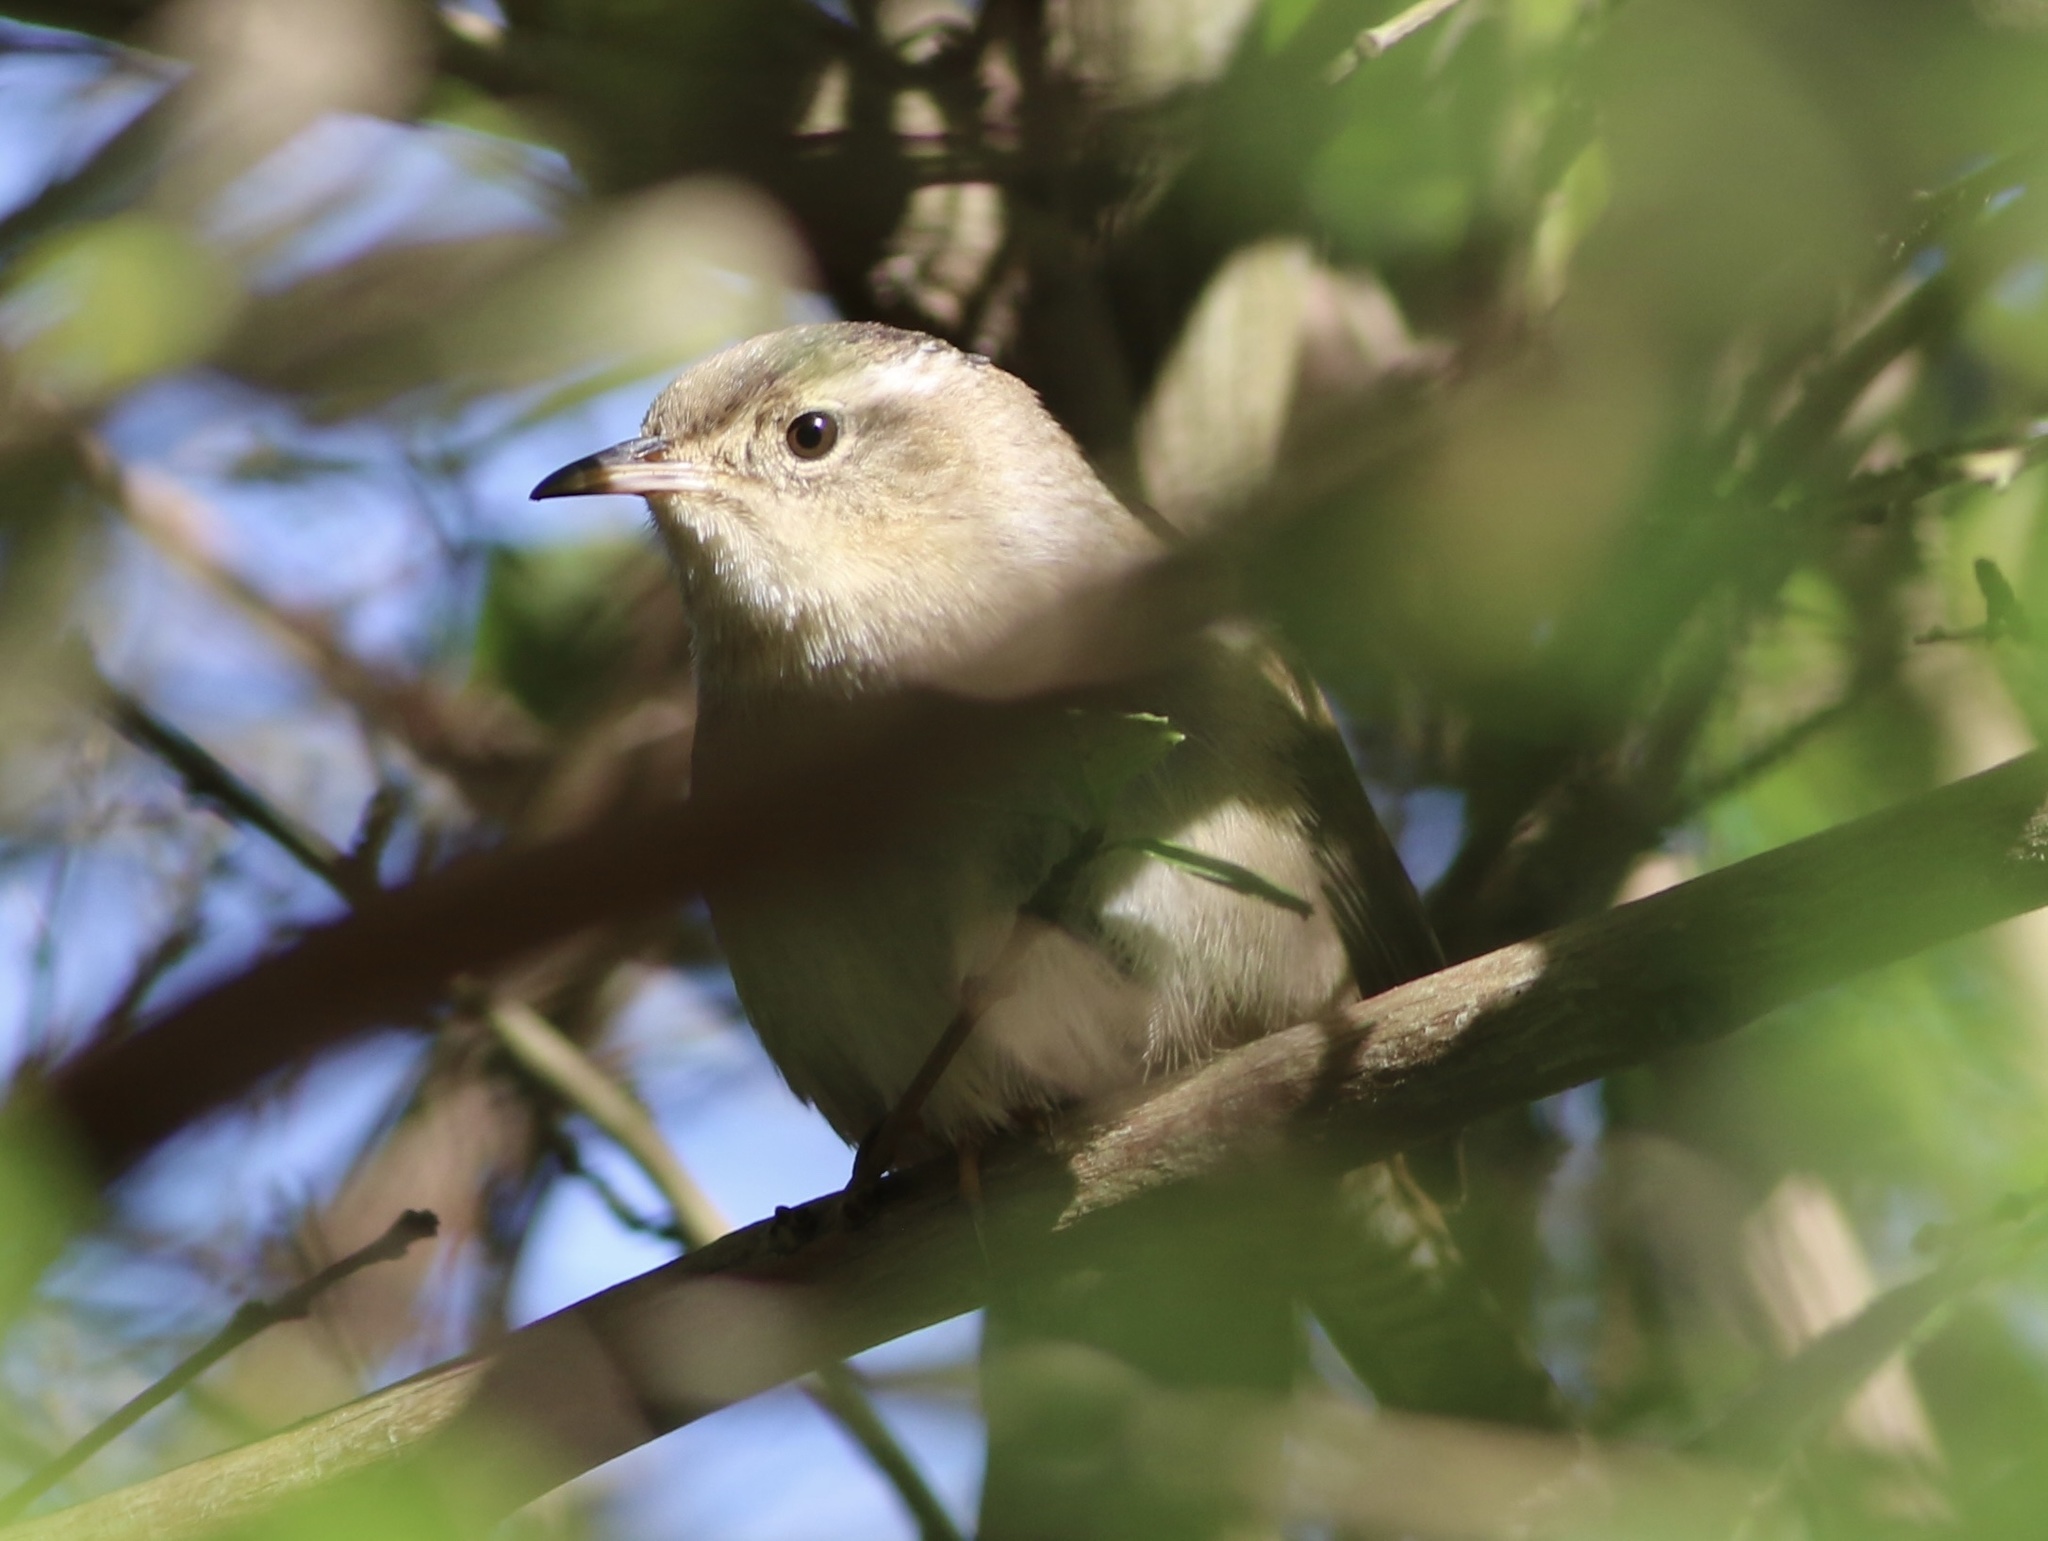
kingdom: Animalia
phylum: Chordata
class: Aves
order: Passeriformes
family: Troglodytidae
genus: Thryomanes
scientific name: Thryomanes bewickii
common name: Bewick's wren
